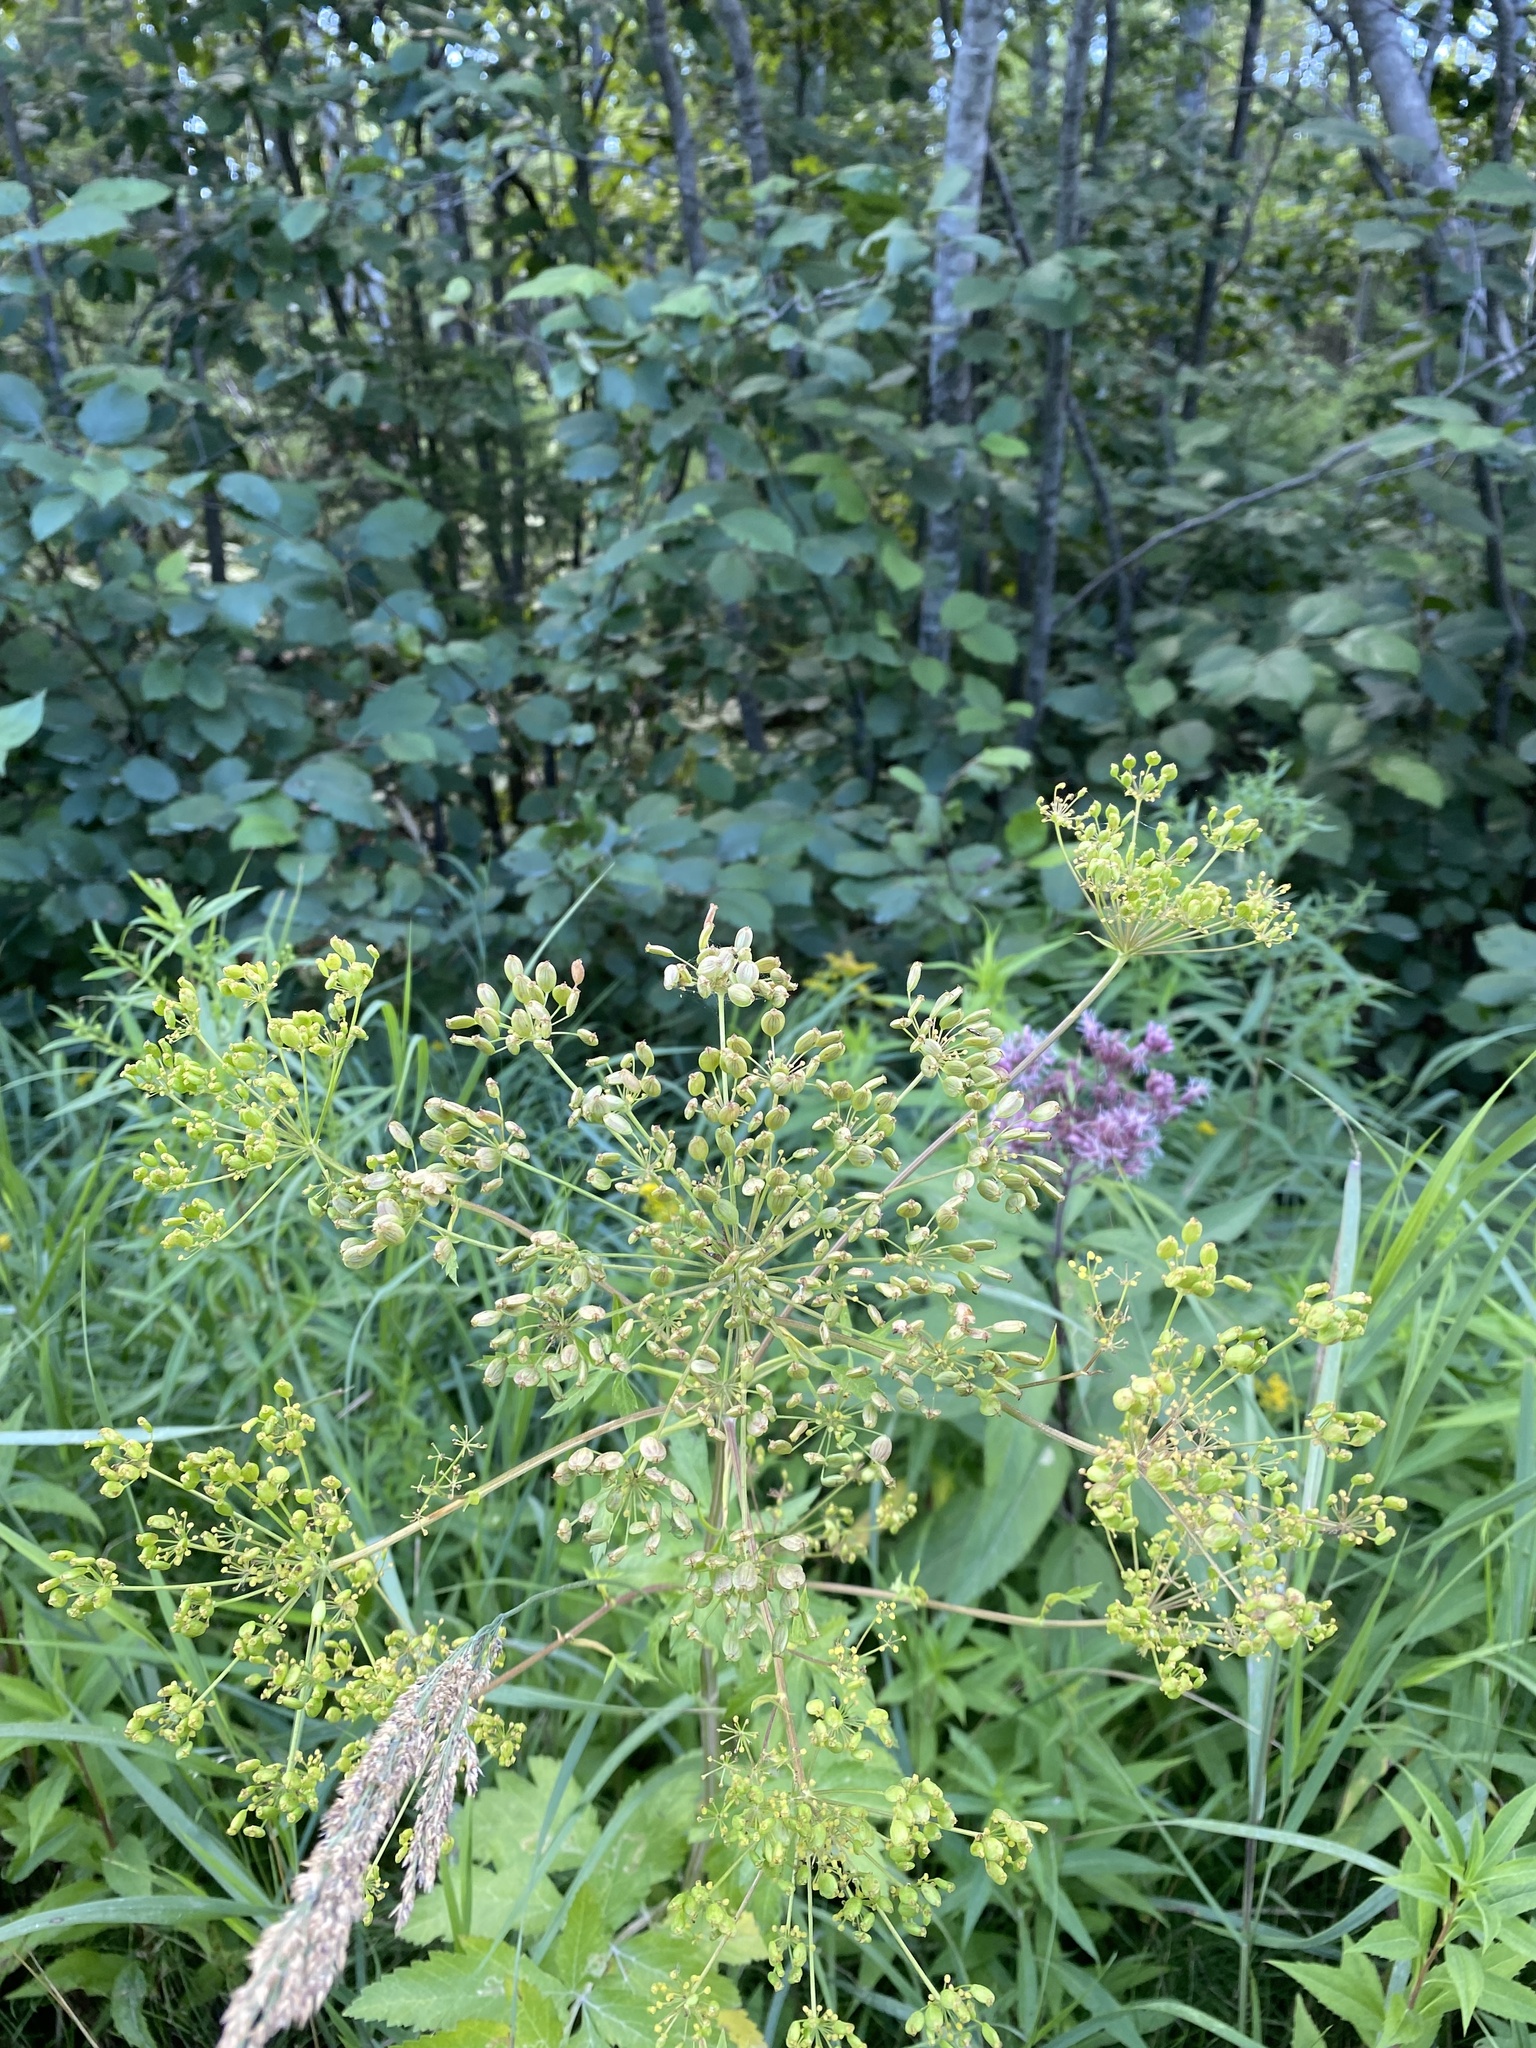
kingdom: Plantae
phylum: Tracheophyta
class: Magnoliopsida
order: Apiales
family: Apiaceae
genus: Pastinaca
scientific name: Pastinaca sativa
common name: Wild parsnip
